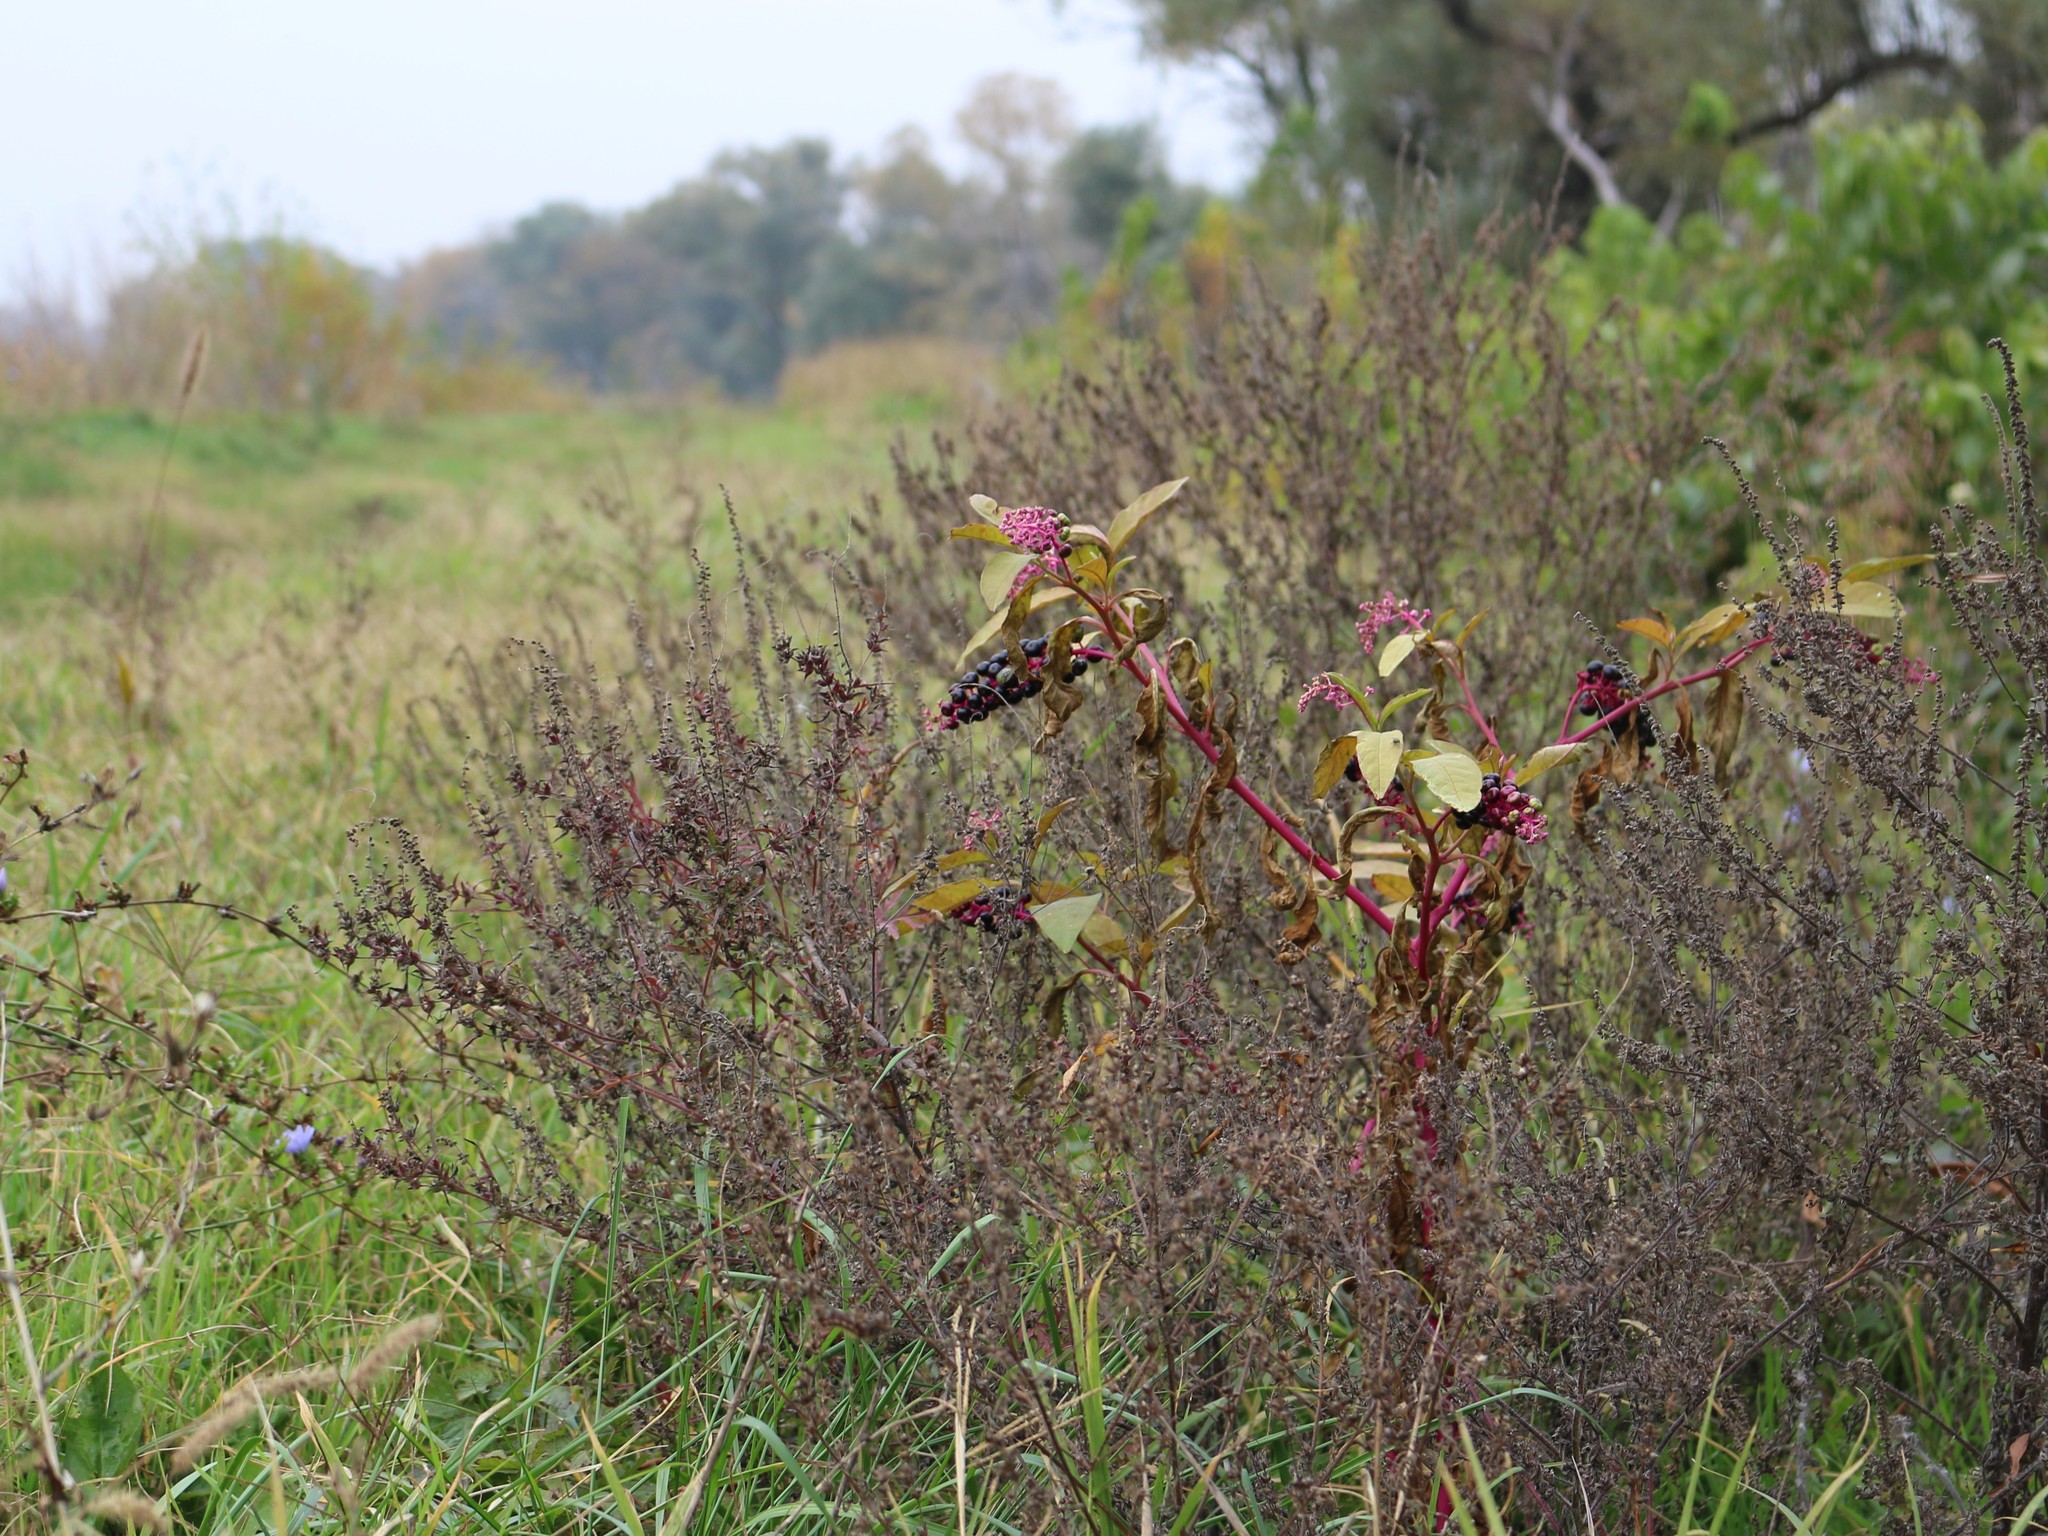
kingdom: Plantae
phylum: Tracheophyta
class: Magnoliopsida
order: Caryophyllales
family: Phytolaccaceae
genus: Phytolacca
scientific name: Phytolacca americana
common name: American pokeweed
